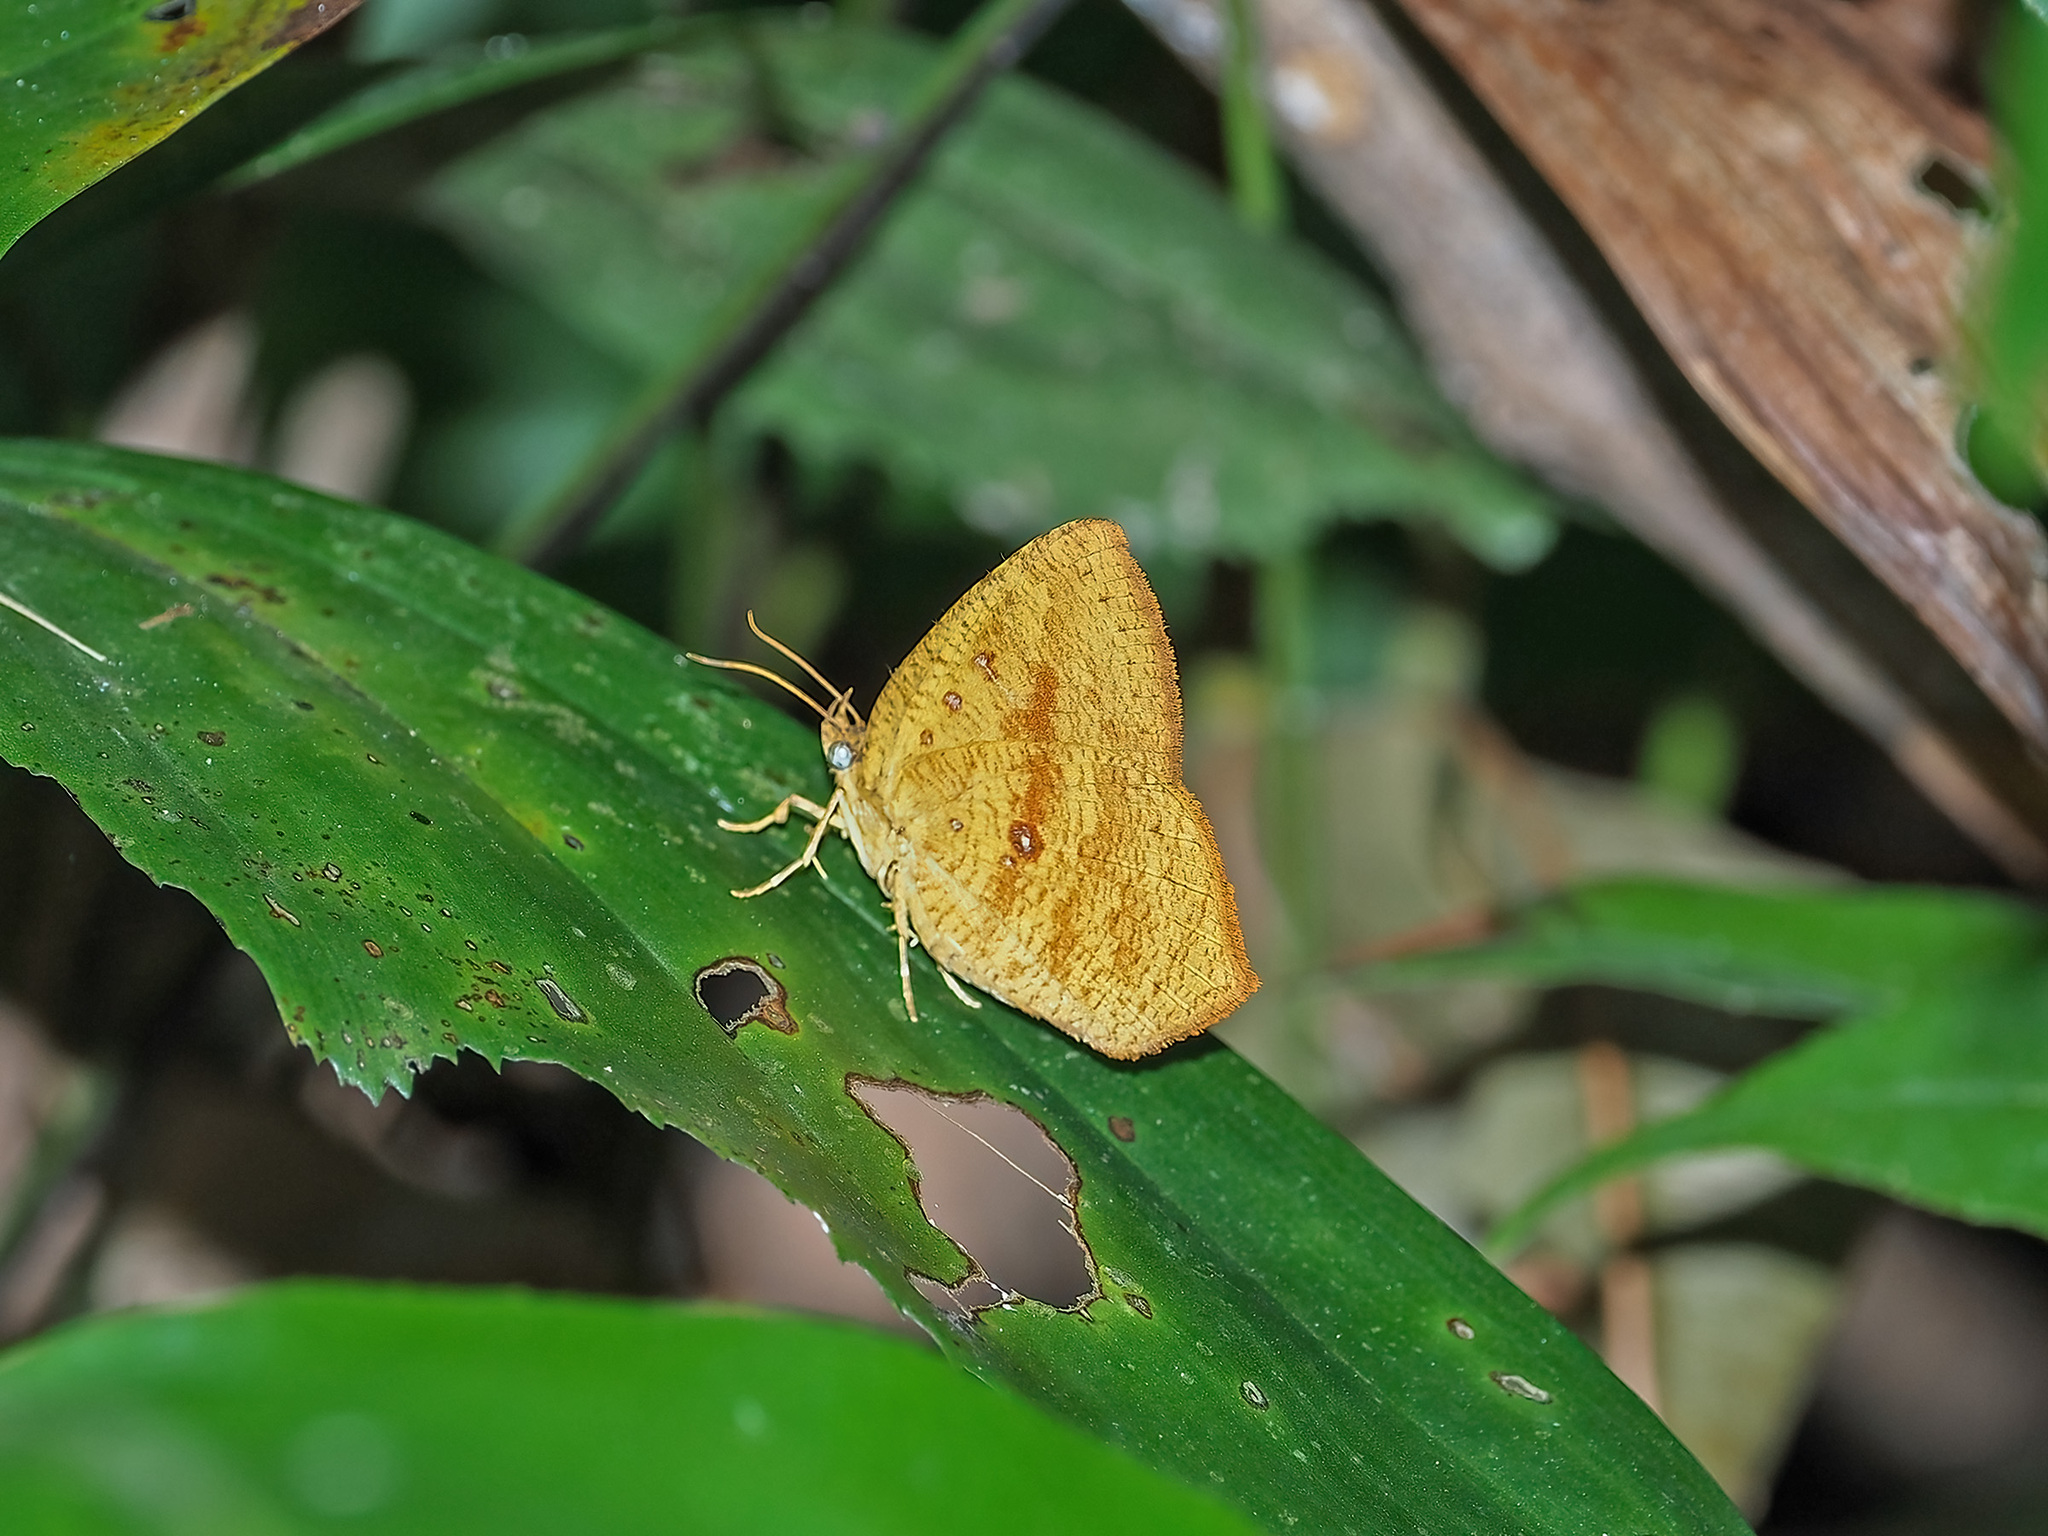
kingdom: Animalia
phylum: Arthropoda
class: Insecta
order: Lepidoptera
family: Callidulidae
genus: Tetragonus
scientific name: Tetragonus catamitus
